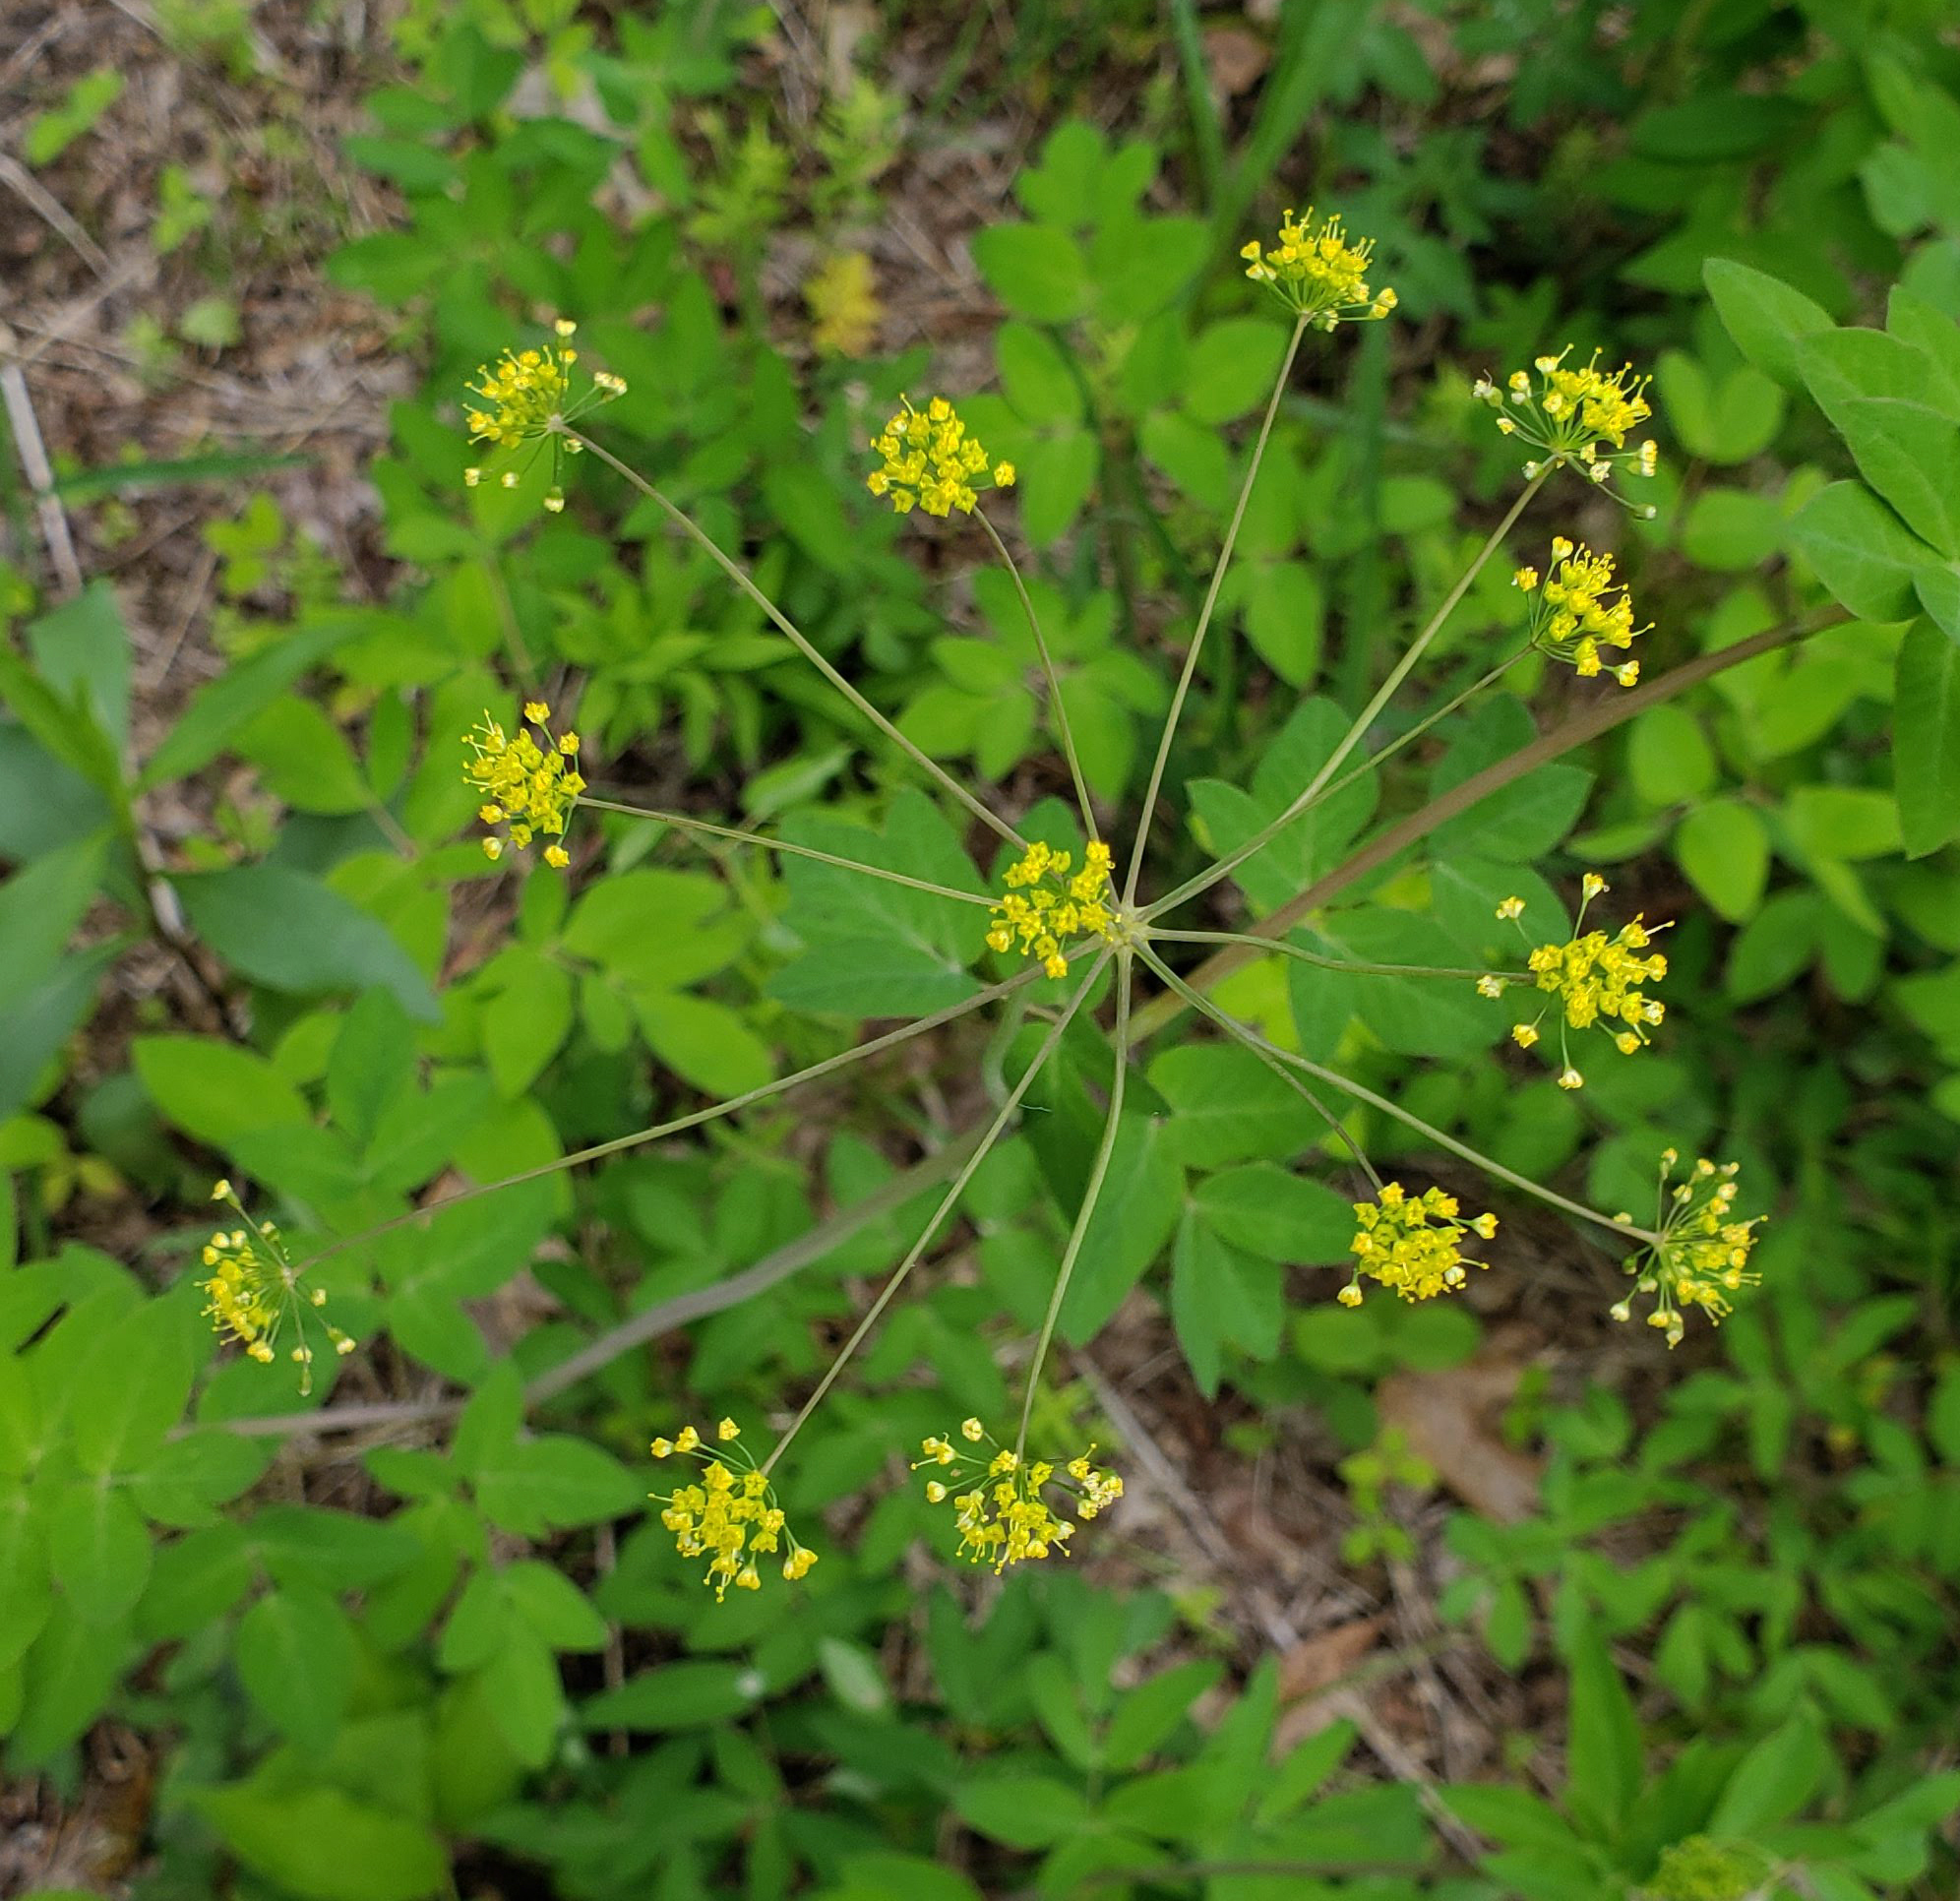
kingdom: Plantae
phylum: Tracheophyta
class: Magnoliopsida
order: Apiales
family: Apiaceae
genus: Taenidia
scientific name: Taenidia integerrima
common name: Golden alexander
